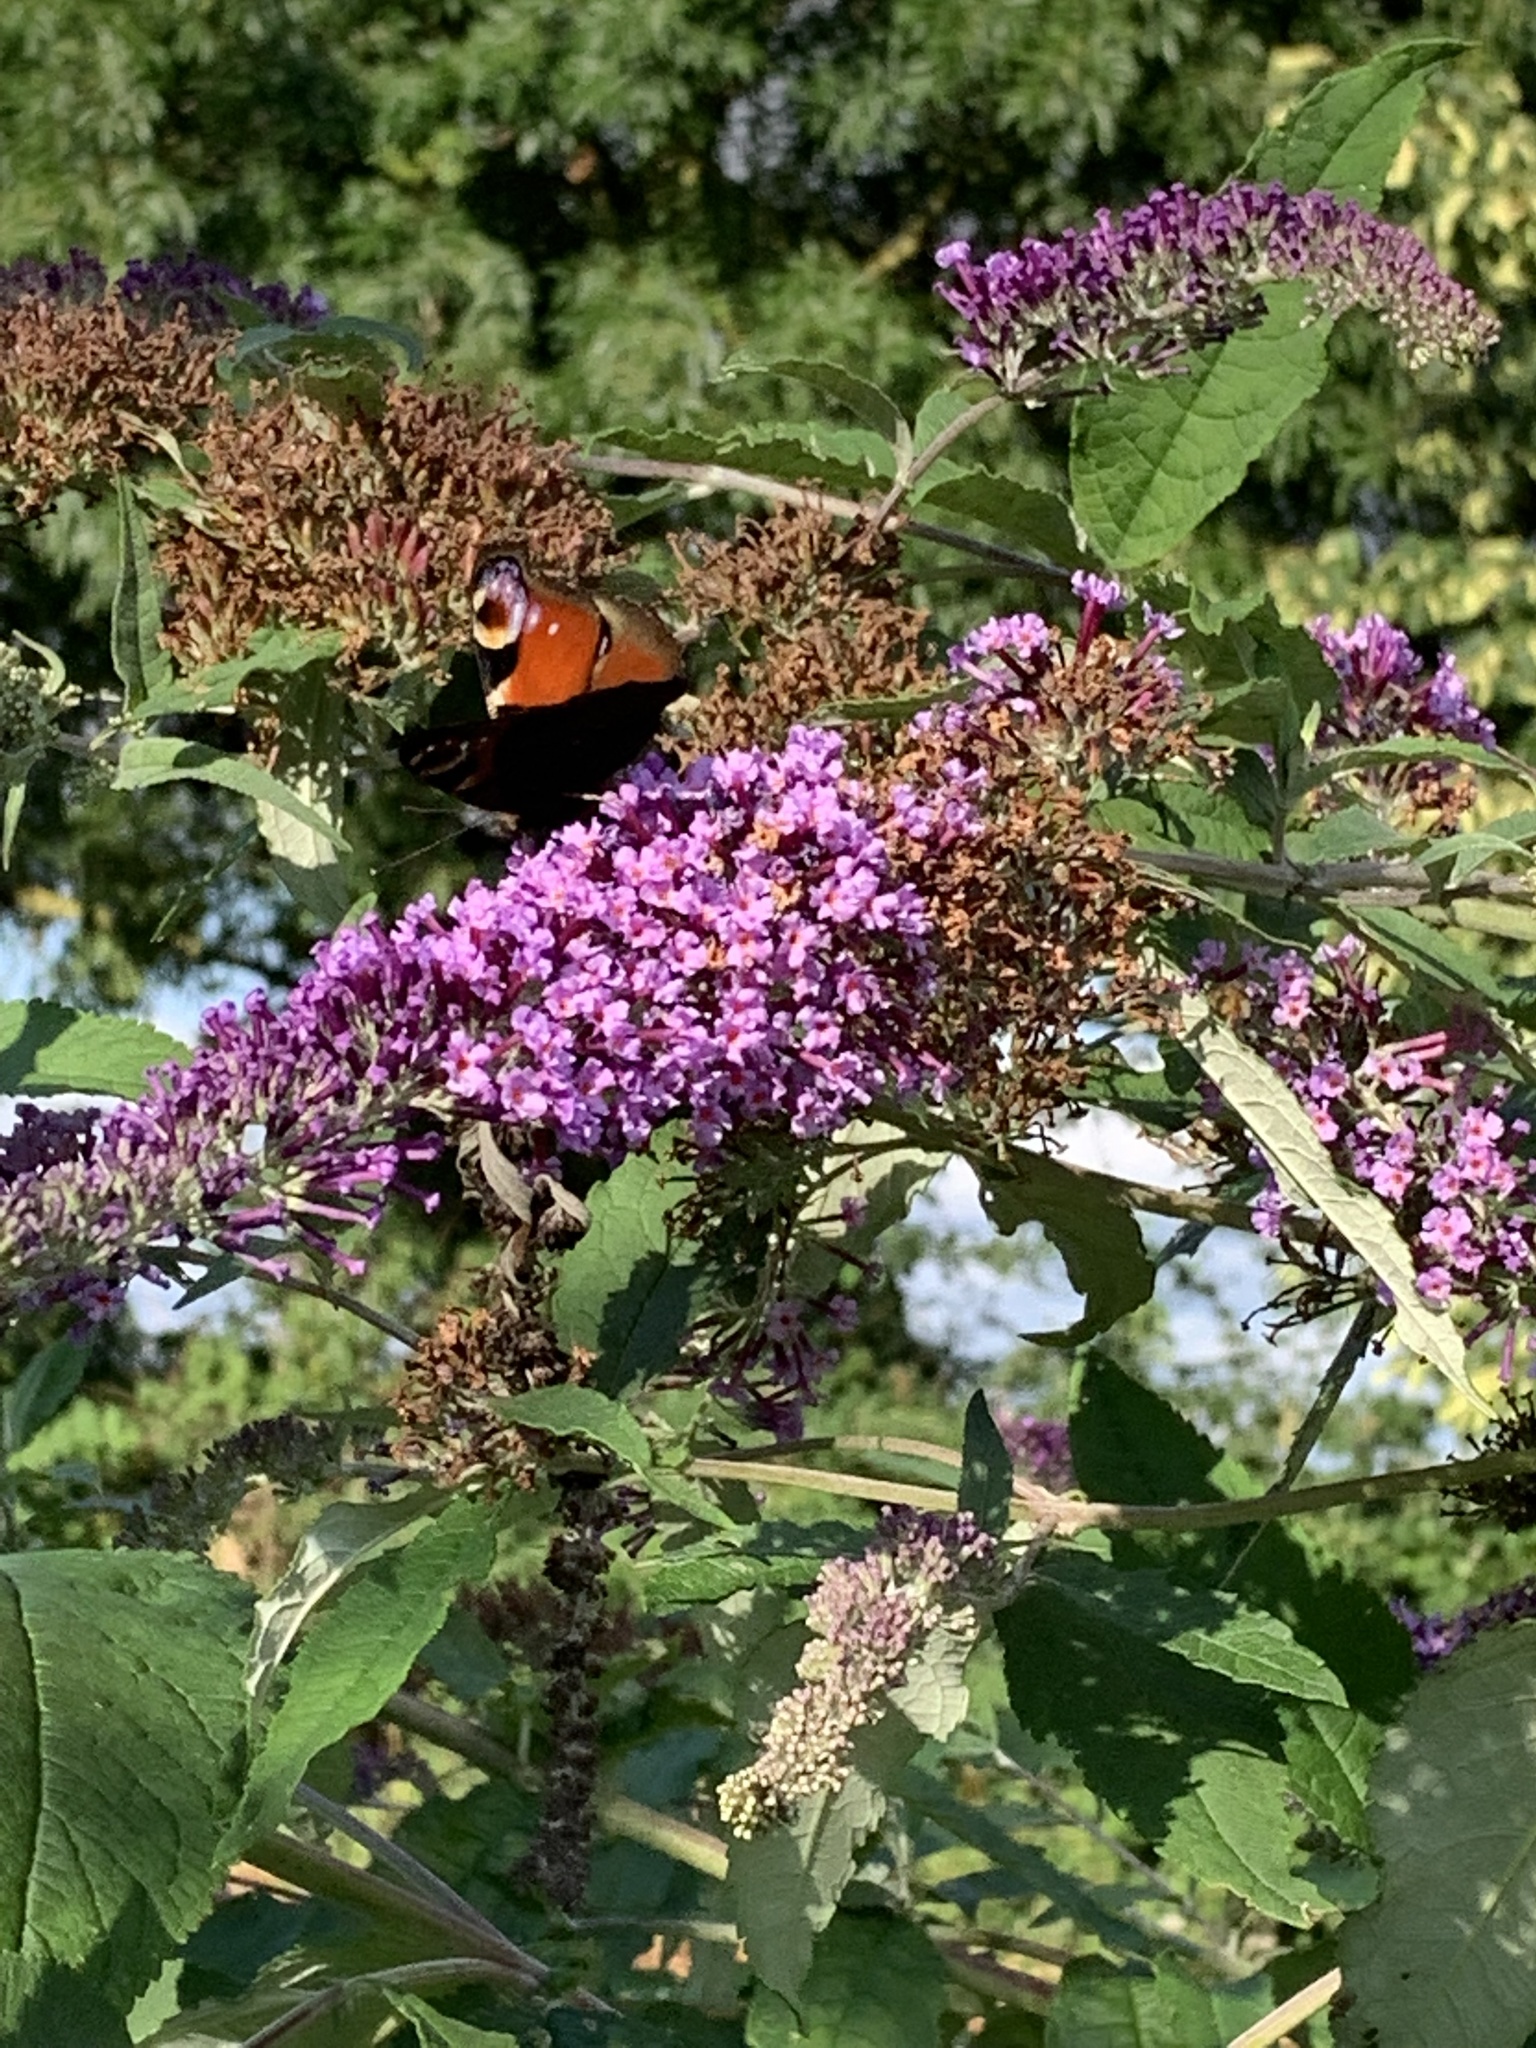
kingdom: Animalia
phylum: Arthropoda
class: Insecta
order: Lepidoptera
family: Nymphalidae
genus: Aglais
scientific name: Aglais io
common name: Peacock
